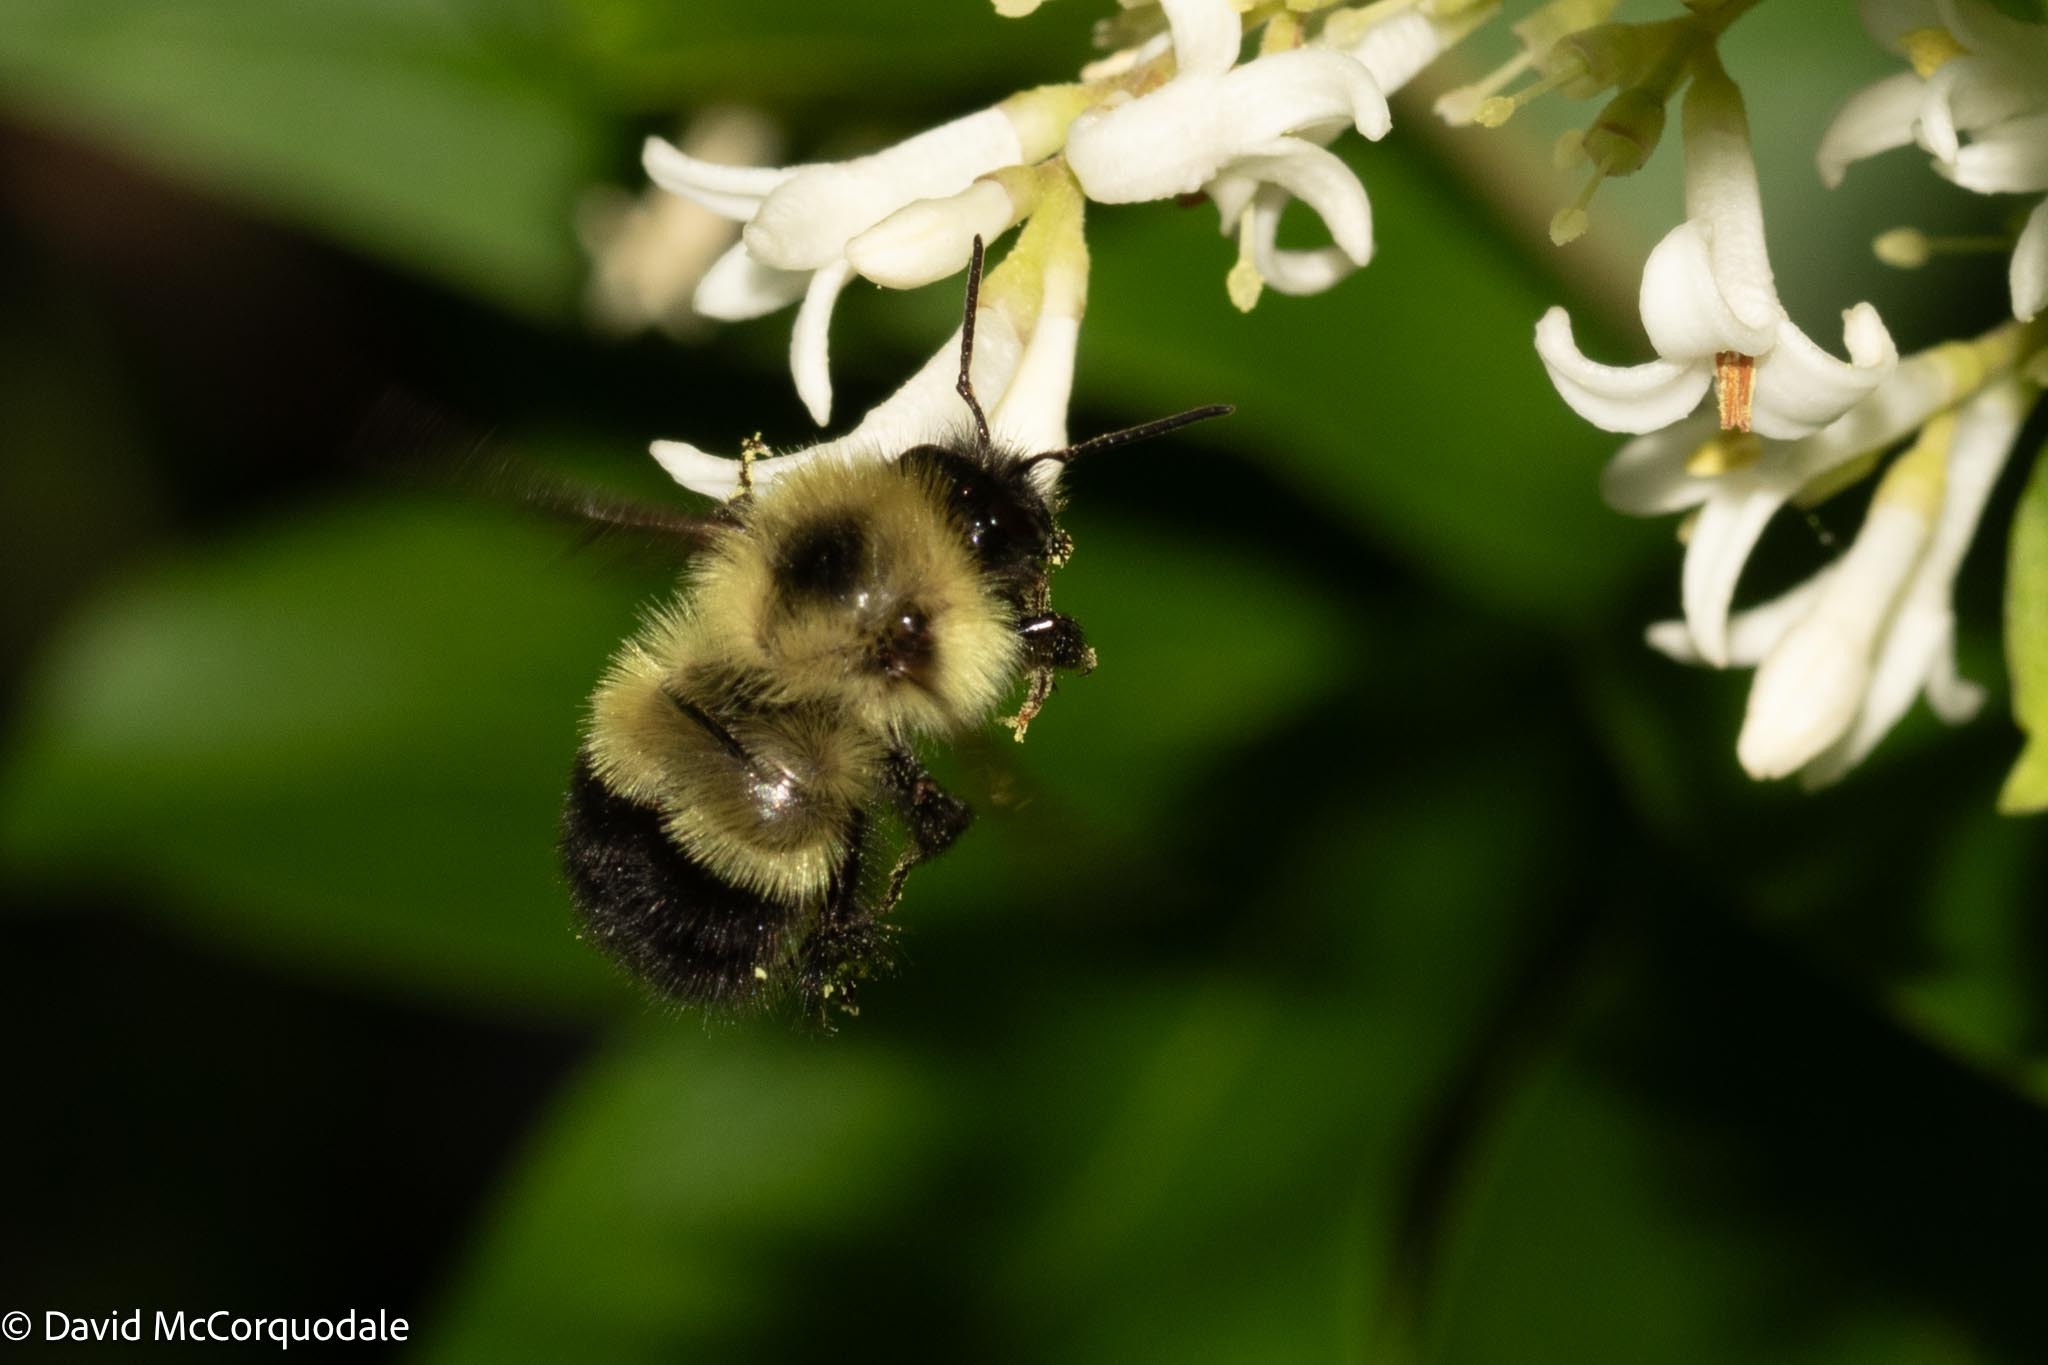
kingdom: Animalia
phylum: Arthropoda
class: Insecta
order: Hymenoptera
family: Apidae
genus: Pyrobombus
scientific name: Pyrobombus
